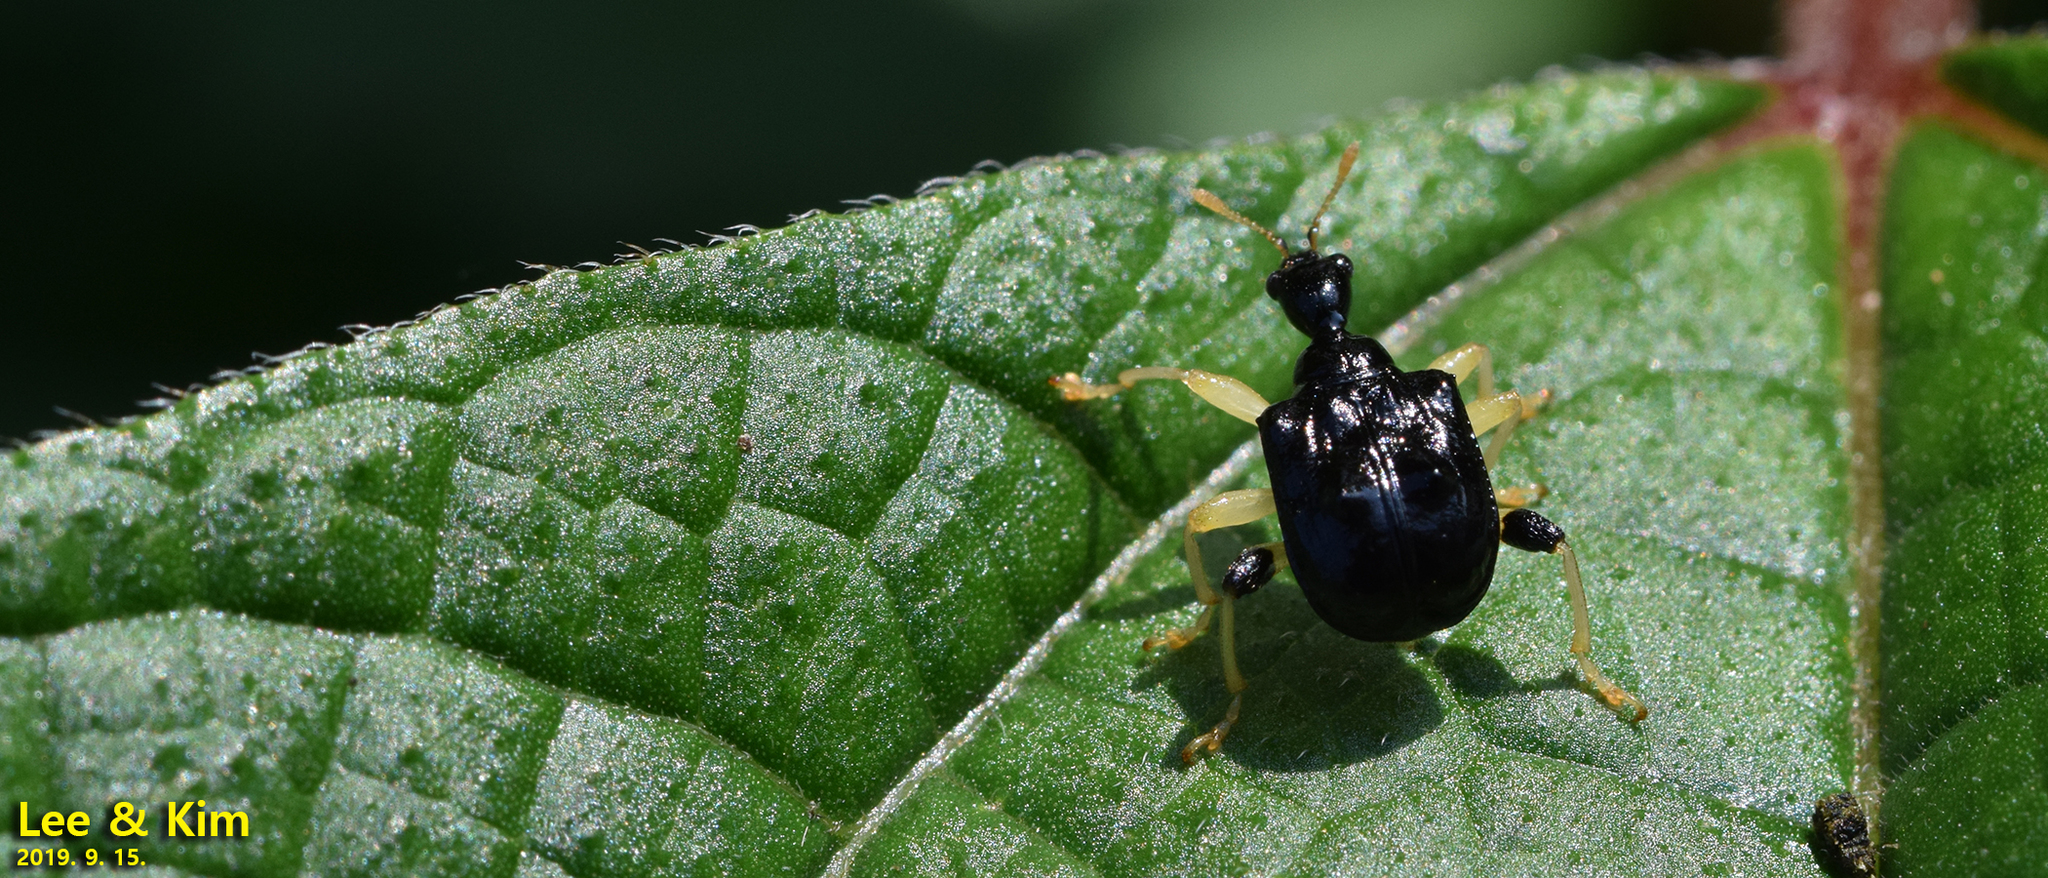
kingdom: Animalia
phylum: Arthropoda
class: Insecta
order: Coleoptera
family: Attelabidae
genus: Phymatapoderus
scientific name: Phymatapoderus flavimanus
